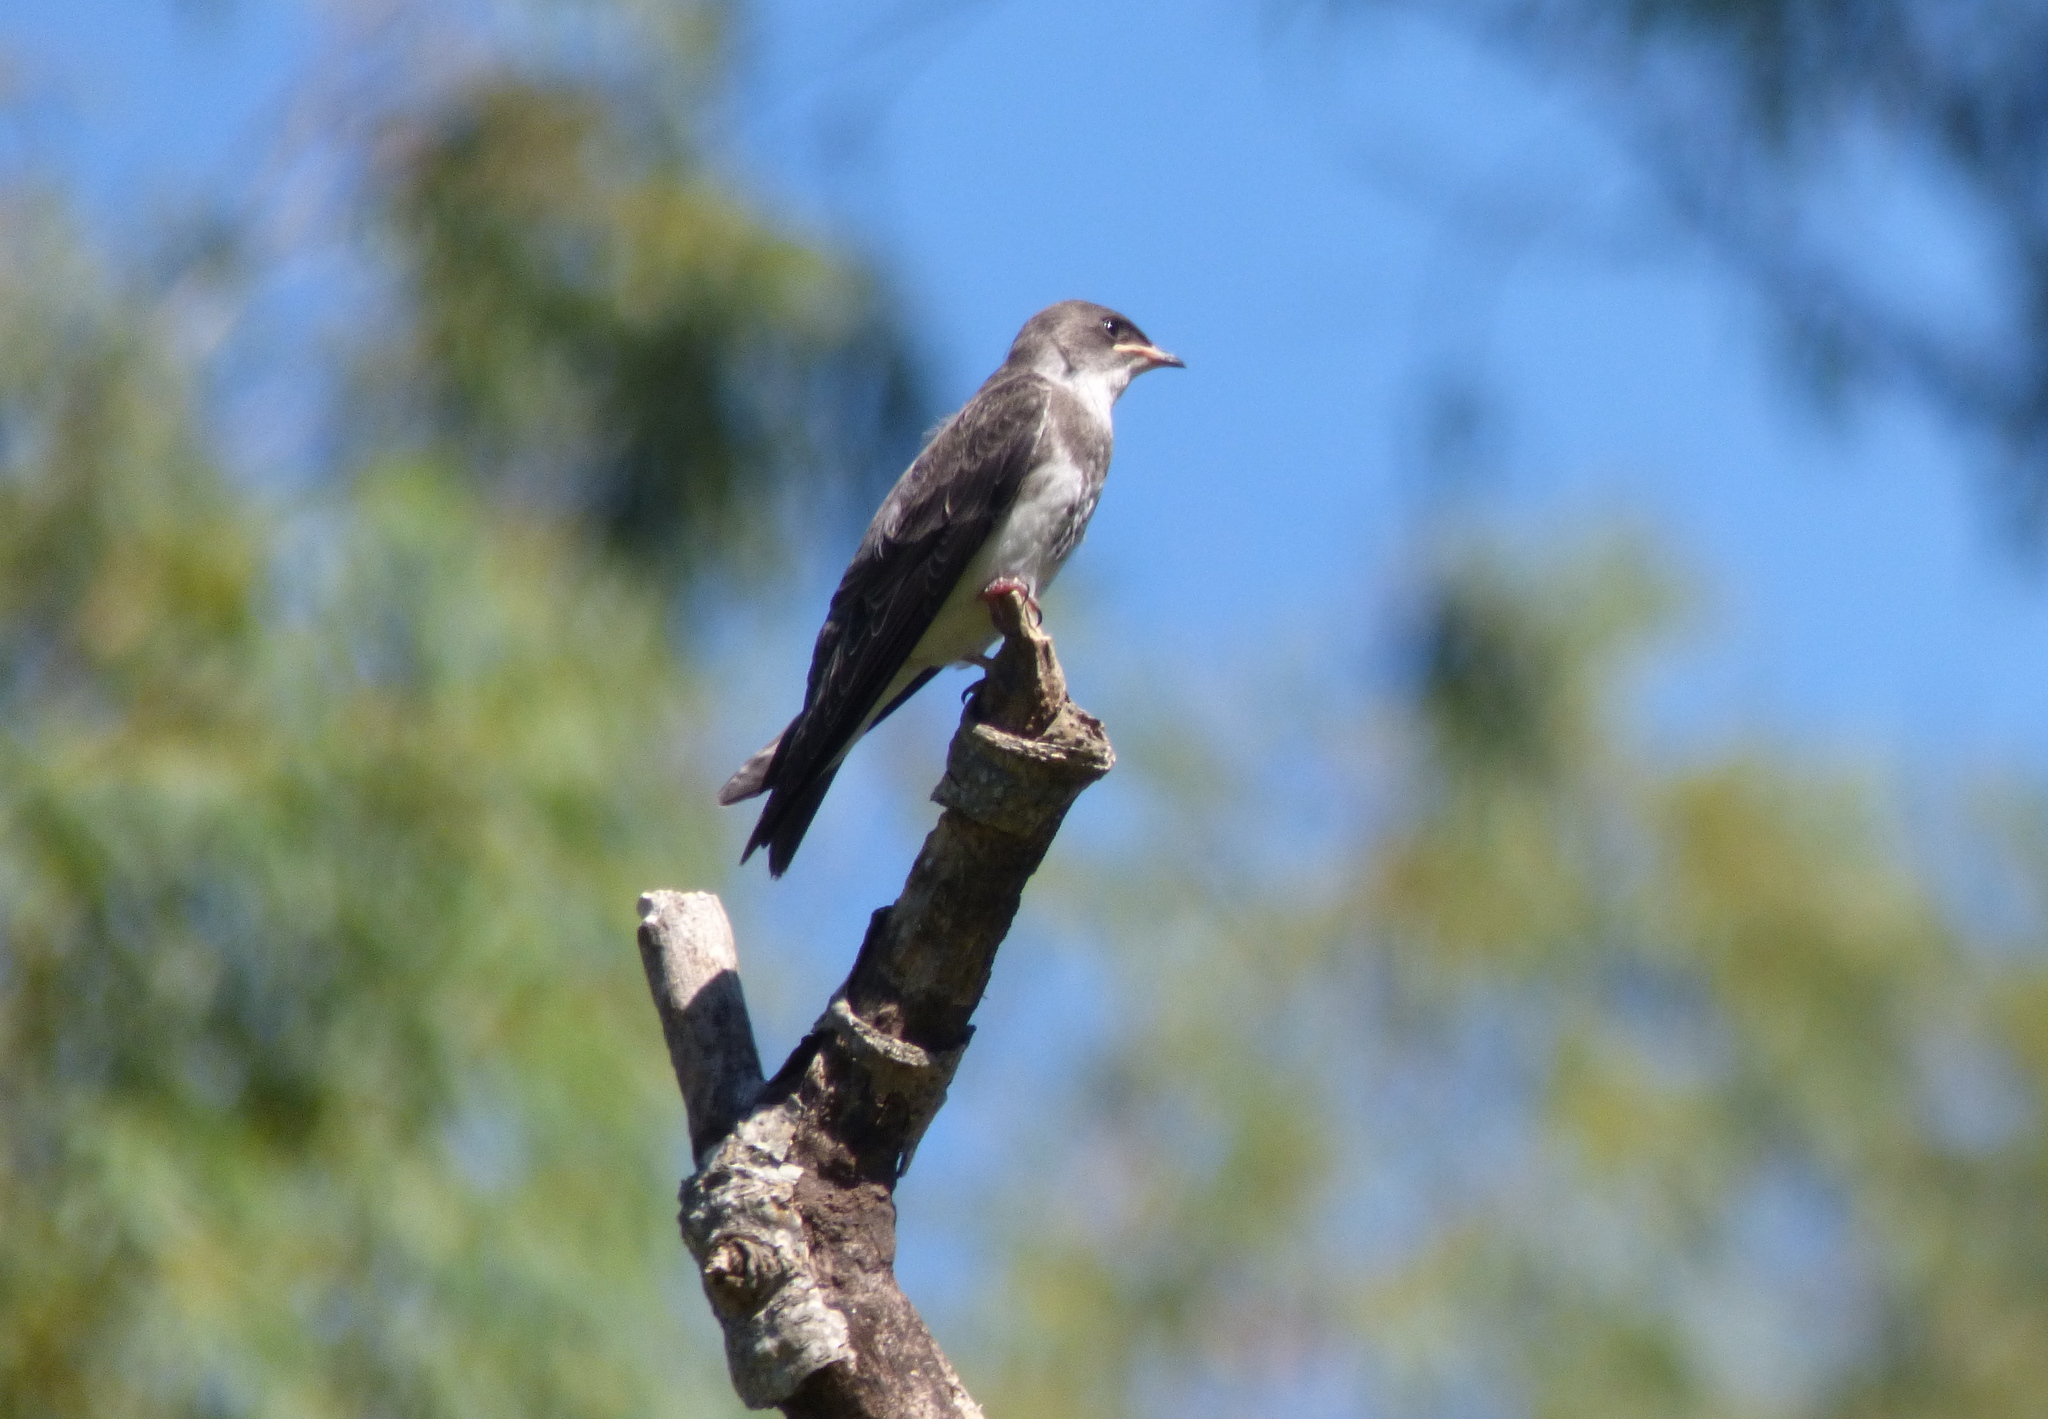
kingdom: Animalia
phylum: Chordata
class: Aves
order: Passeriformes
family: Hirundinidae
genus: Progne
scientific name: Progne tapera
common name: Brown-chested martin
